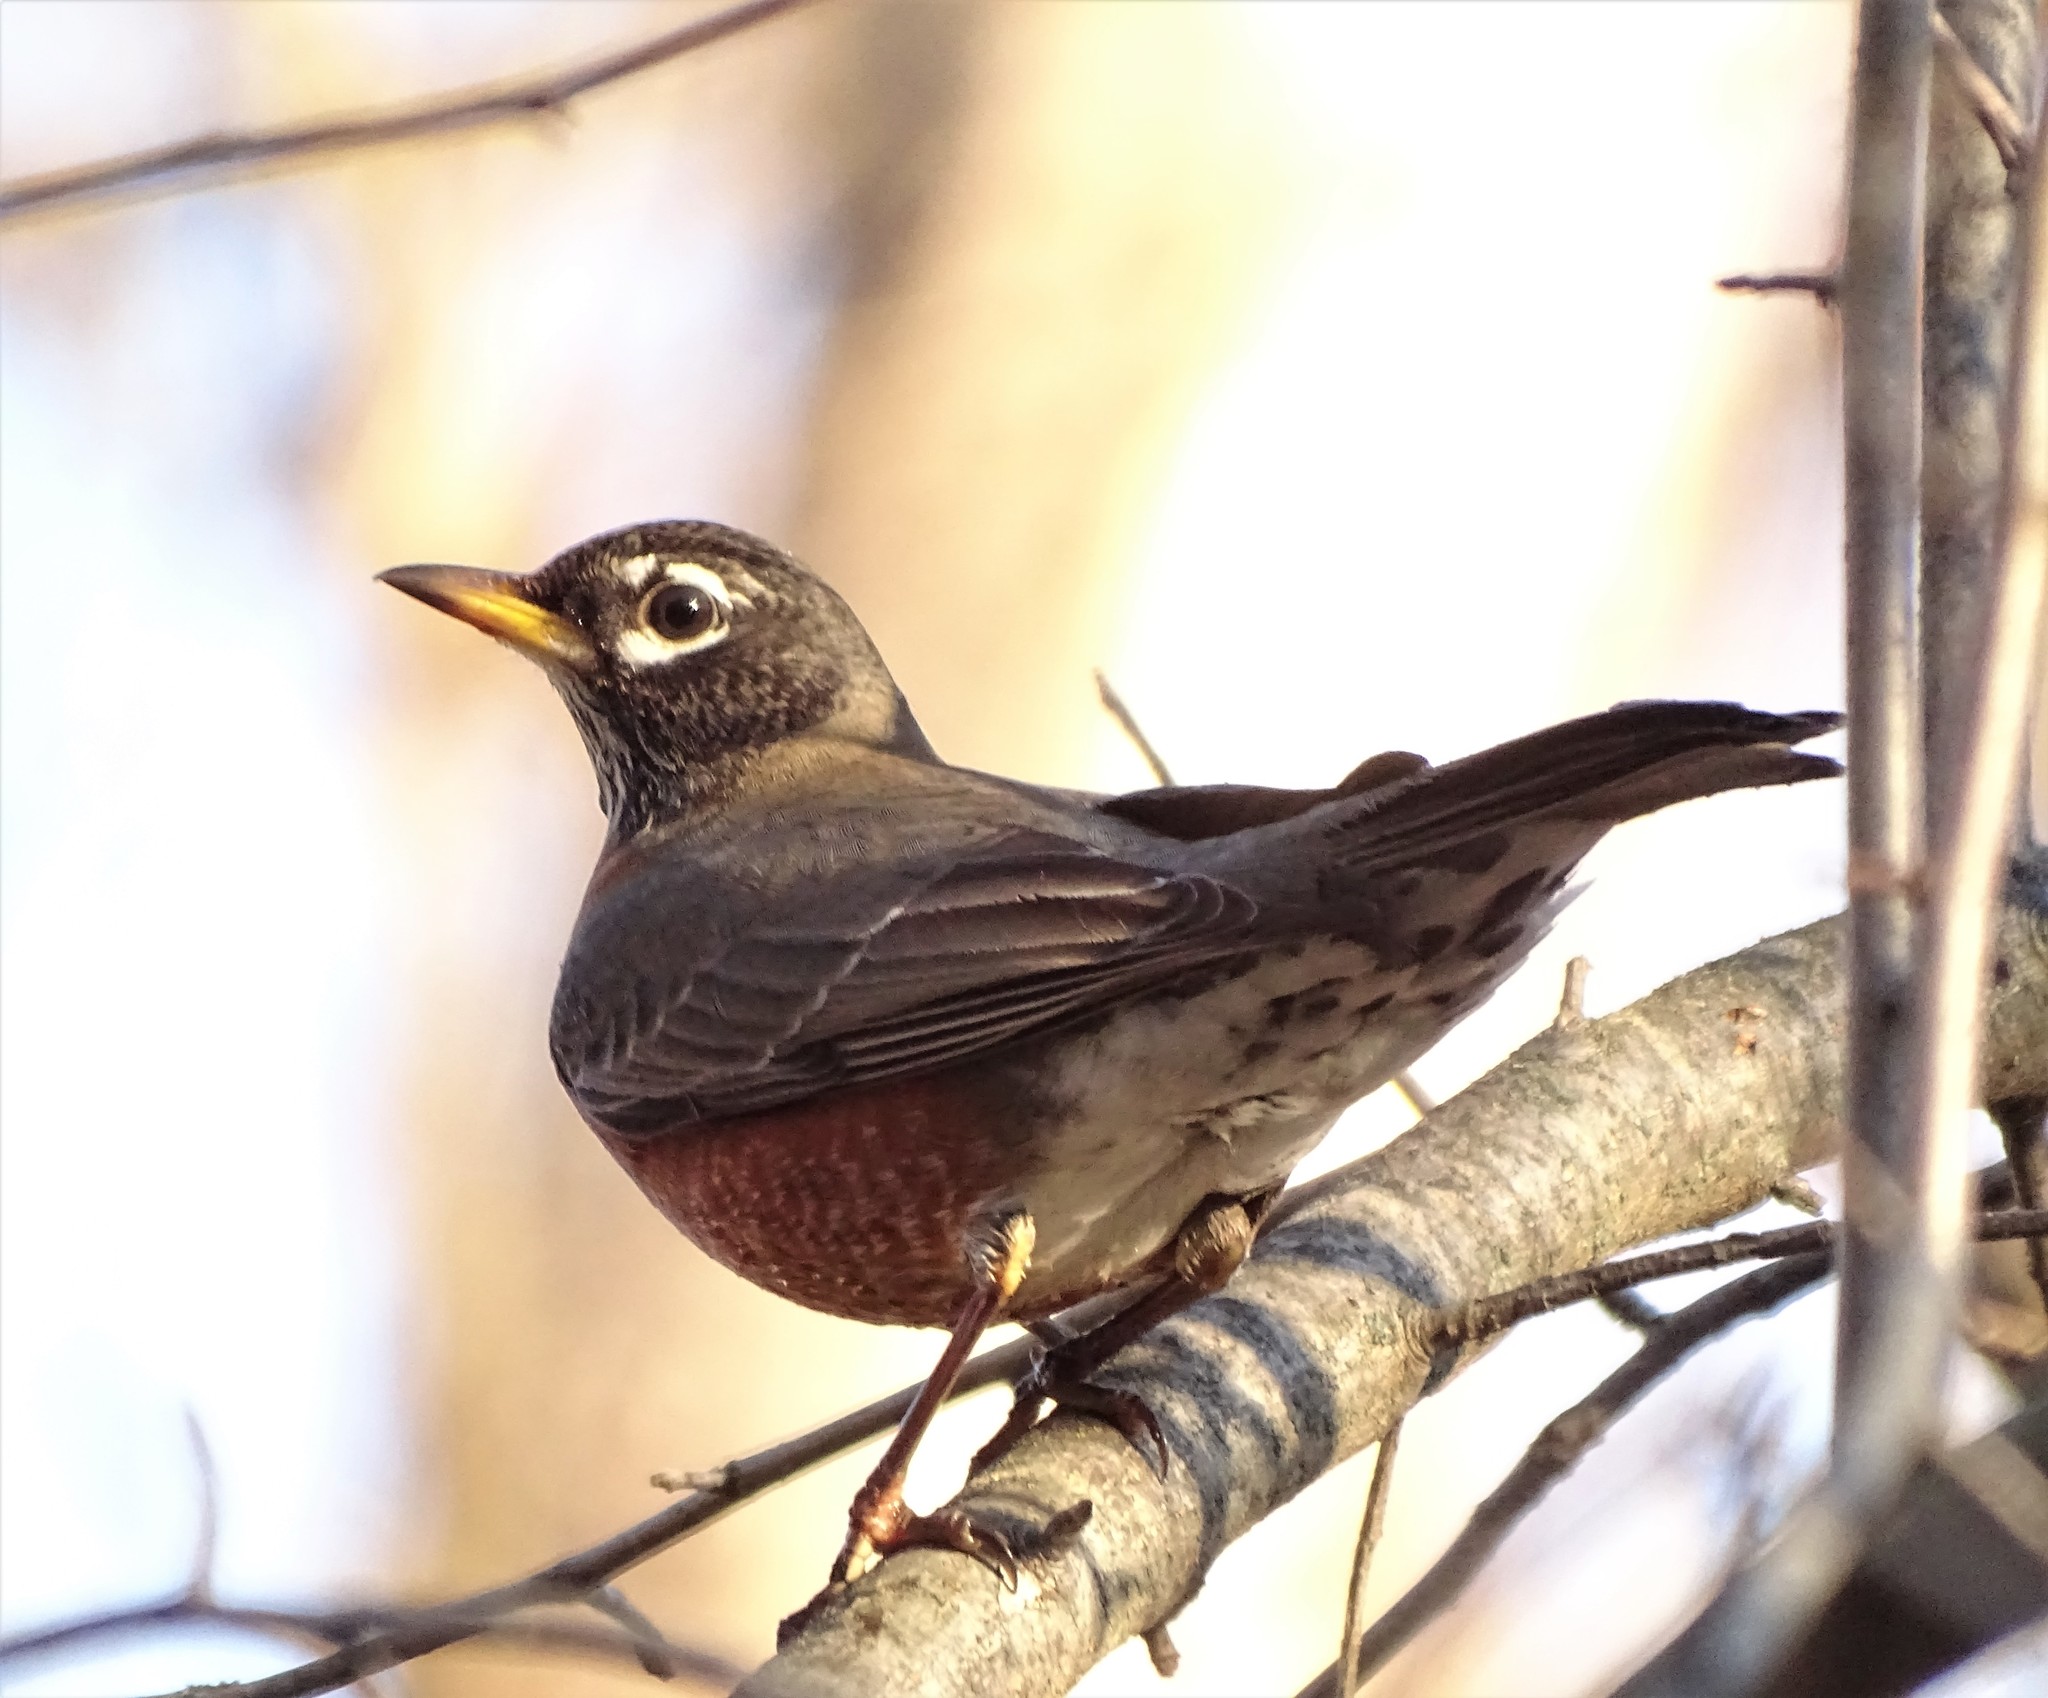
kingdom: Animalia
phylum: Chordata
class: Aves
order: Passeriformes
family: Turdidae
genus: Turdus
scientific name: Turdus migratorius
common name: American robin
